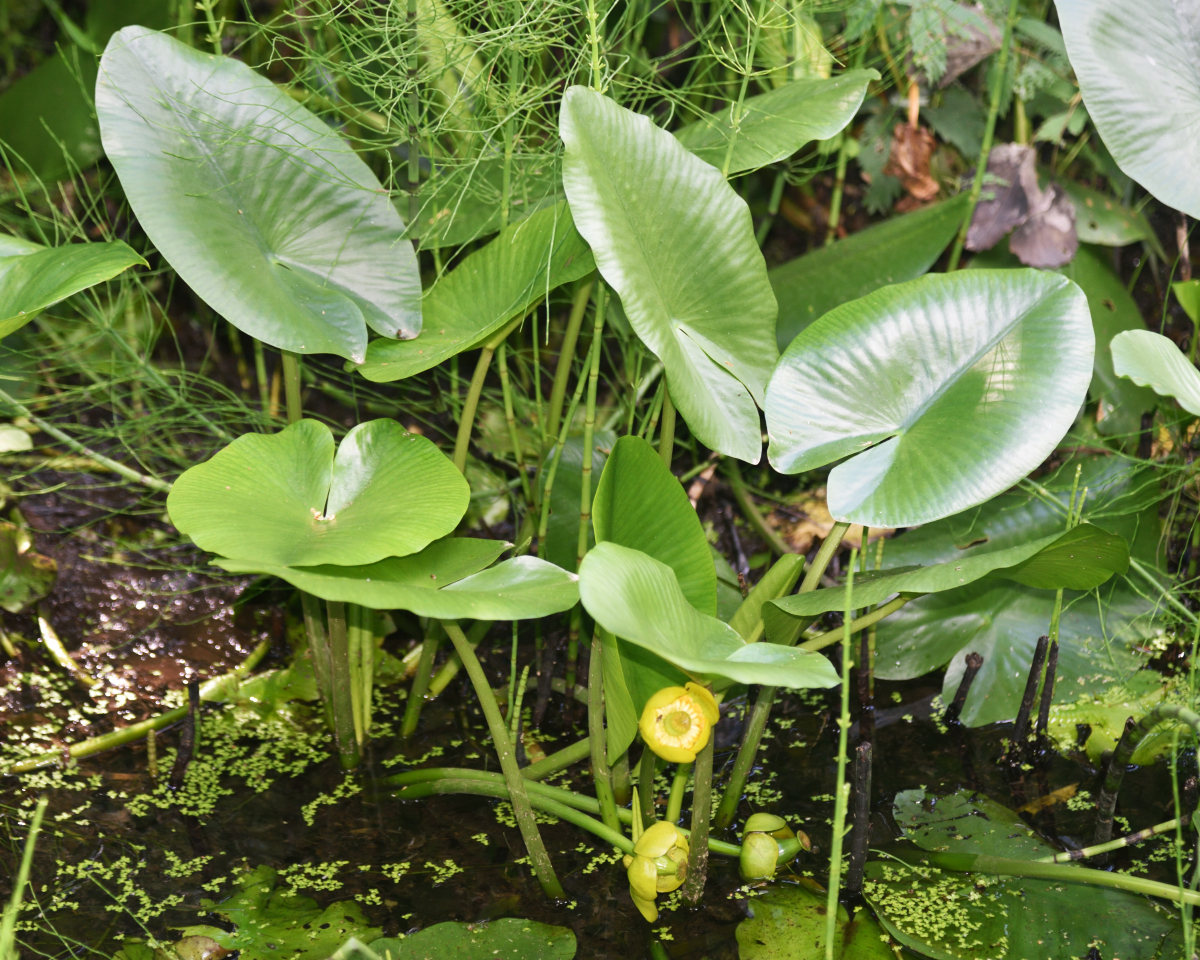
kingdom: Plantae
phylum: Tracheophyta
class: Magnoliopsida
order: Nymphaeales
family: Nymphaeaceae
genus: Nuphar
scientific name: Nuphar lutea
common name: Yellow water-lily
